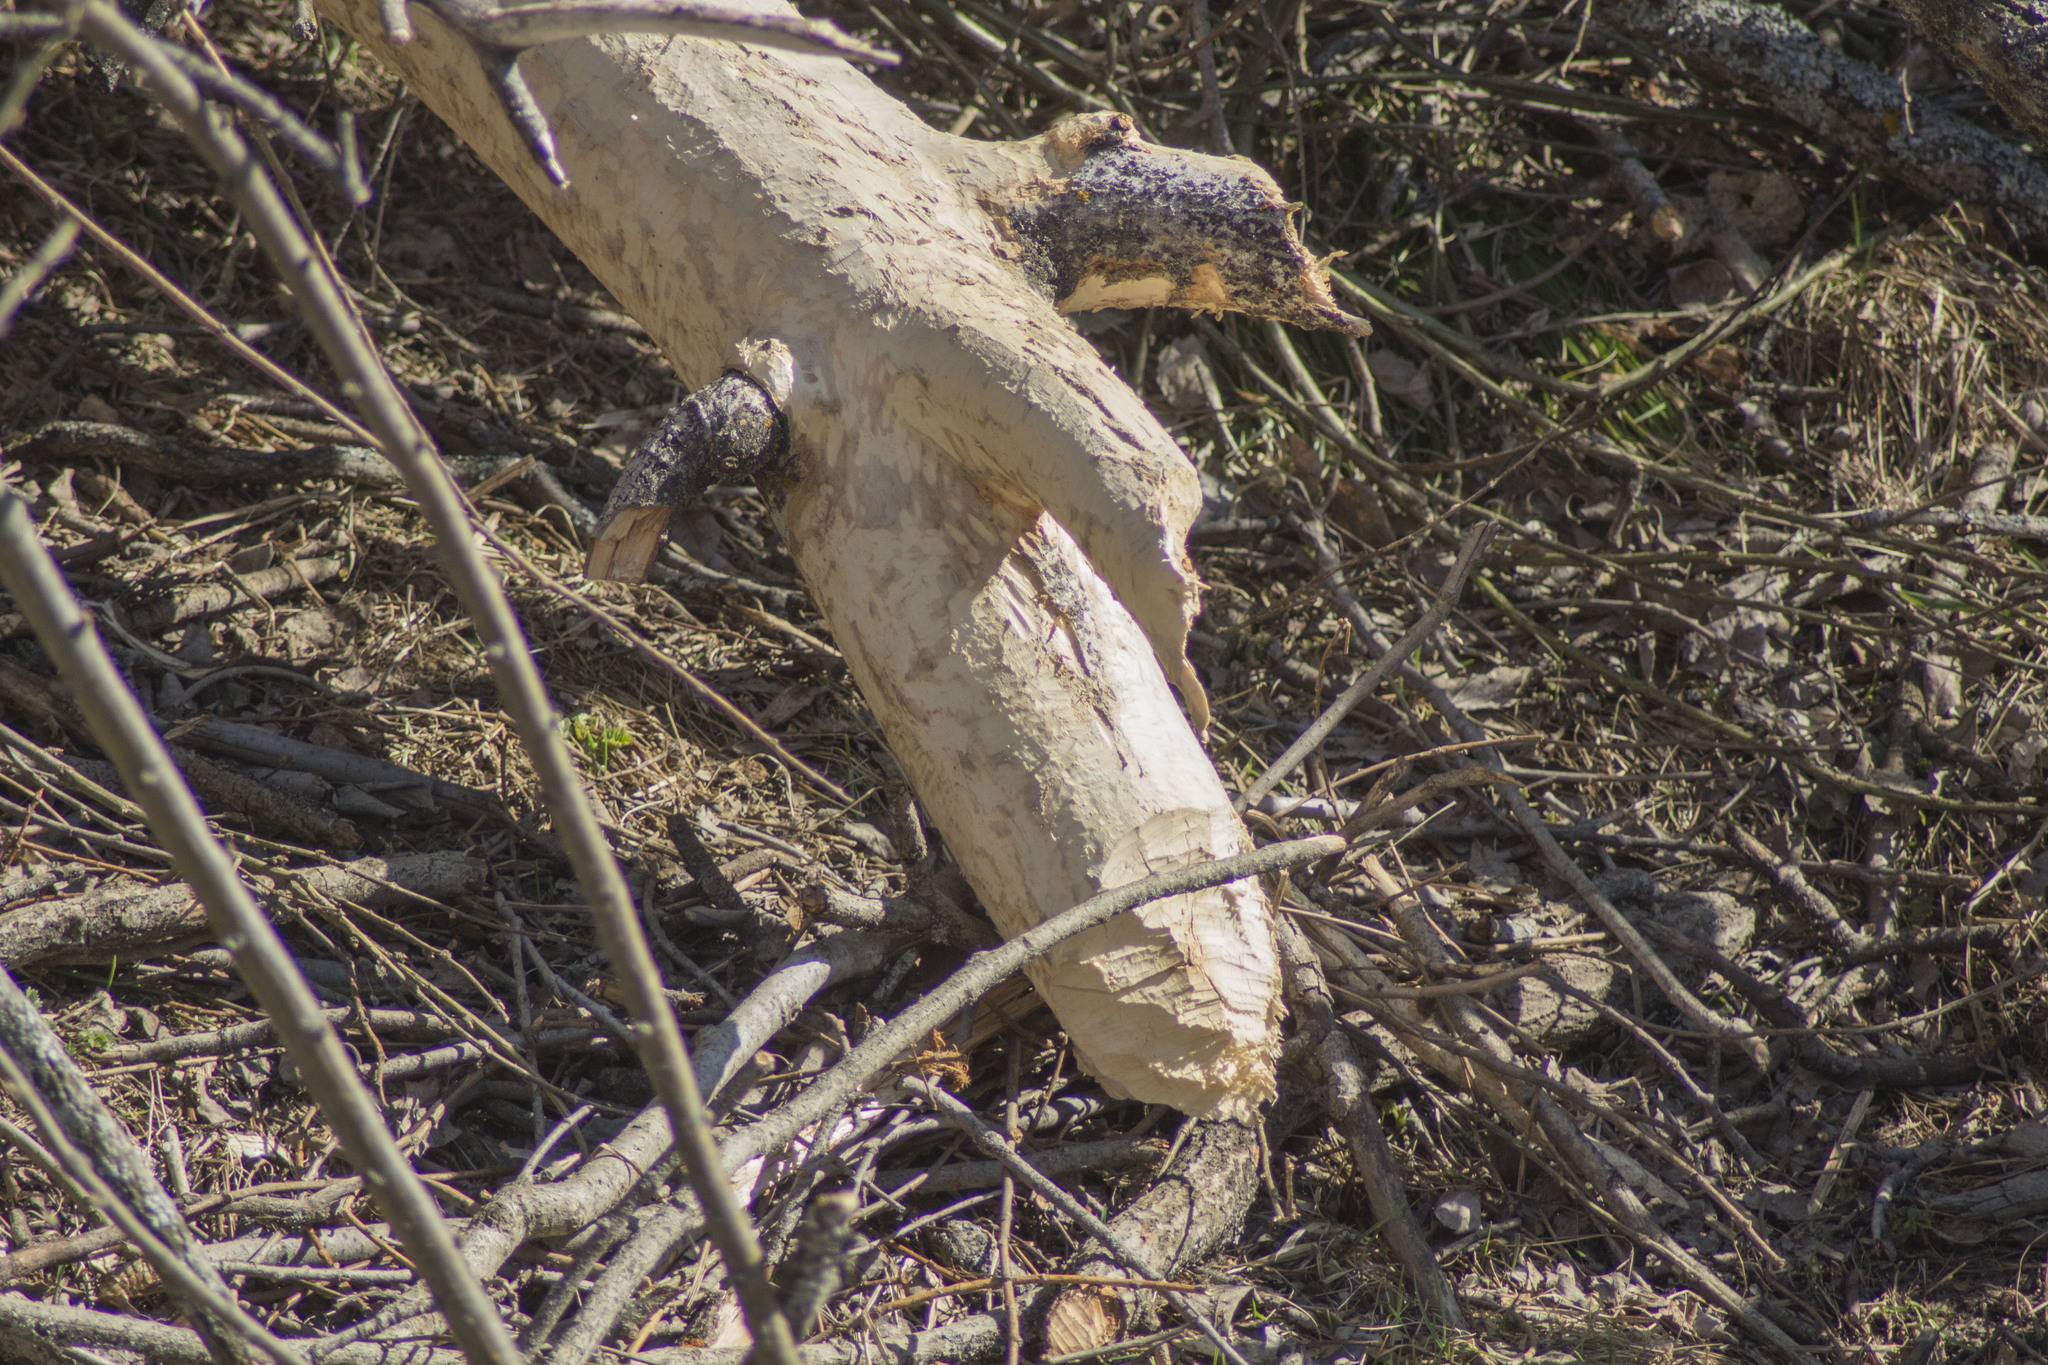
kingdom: Animalia
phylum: Chordata
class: Mammalia
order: Rodentia
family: Castoridae
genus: Castor
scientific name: Castor fiber
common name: Eurasian beaver
